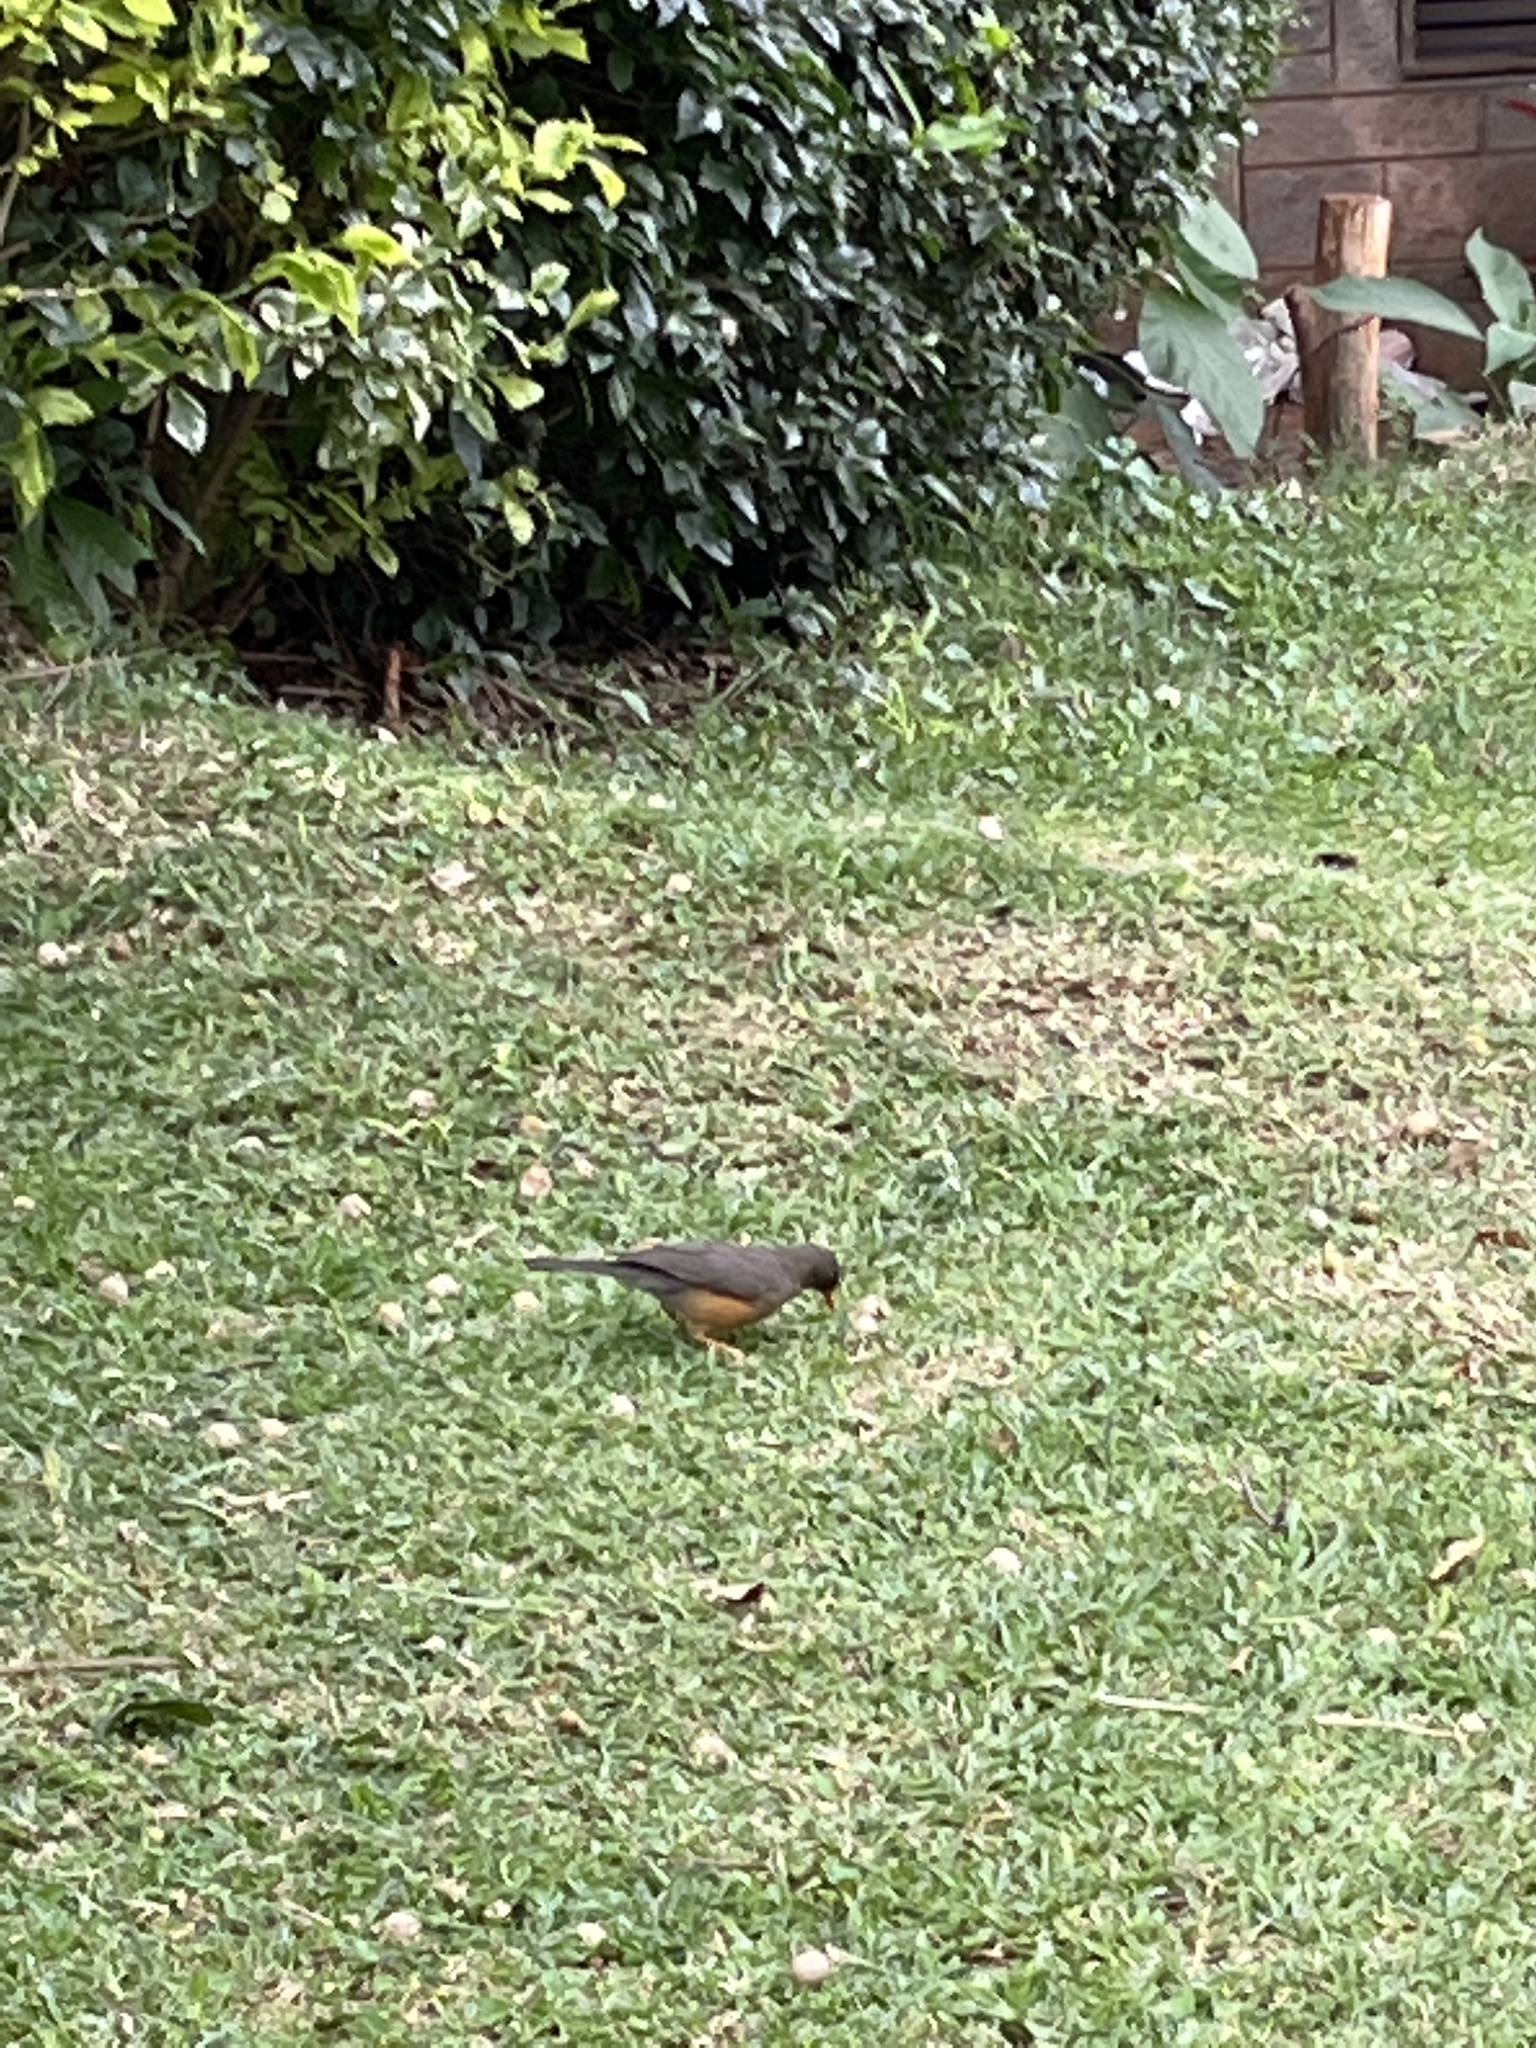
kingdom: Animalia
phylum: Chordata
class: Aves
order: Passeriformes
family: Turdidae
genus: Turdus
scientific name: Turdus abyssinicus
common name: Abyssinian thrush
